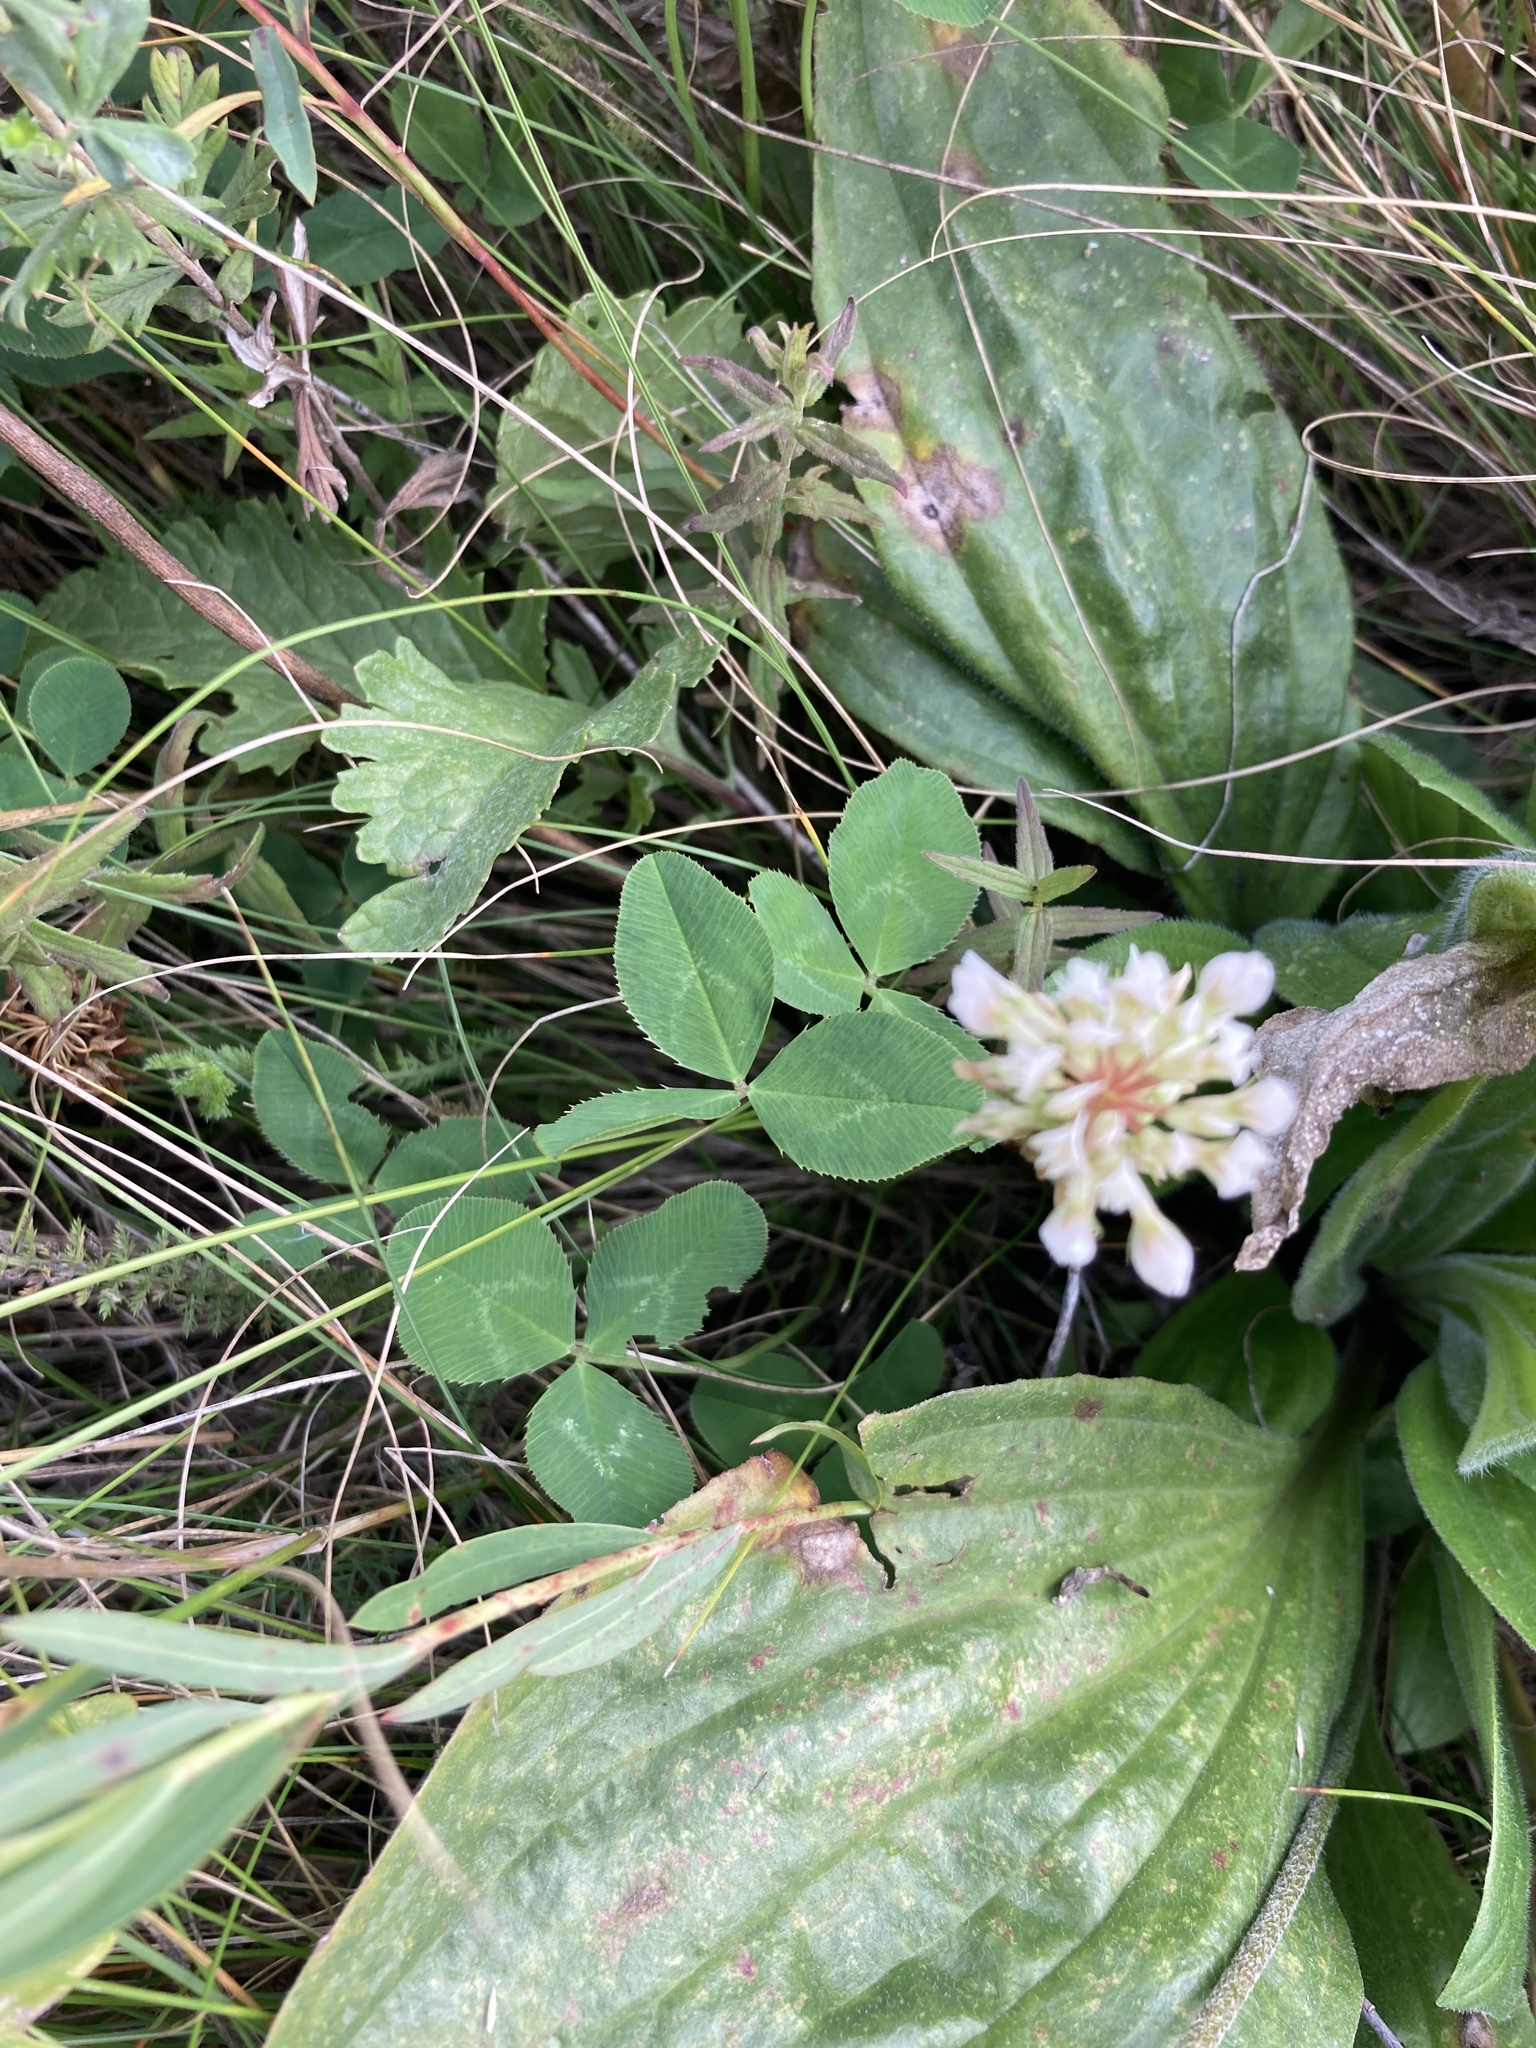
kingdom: Plantae
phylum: Tracheophyta
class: Magnoliopsida
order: Fabales
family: Fabaceae
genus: Trifolium
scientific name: Trifolium repens
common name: White clover
